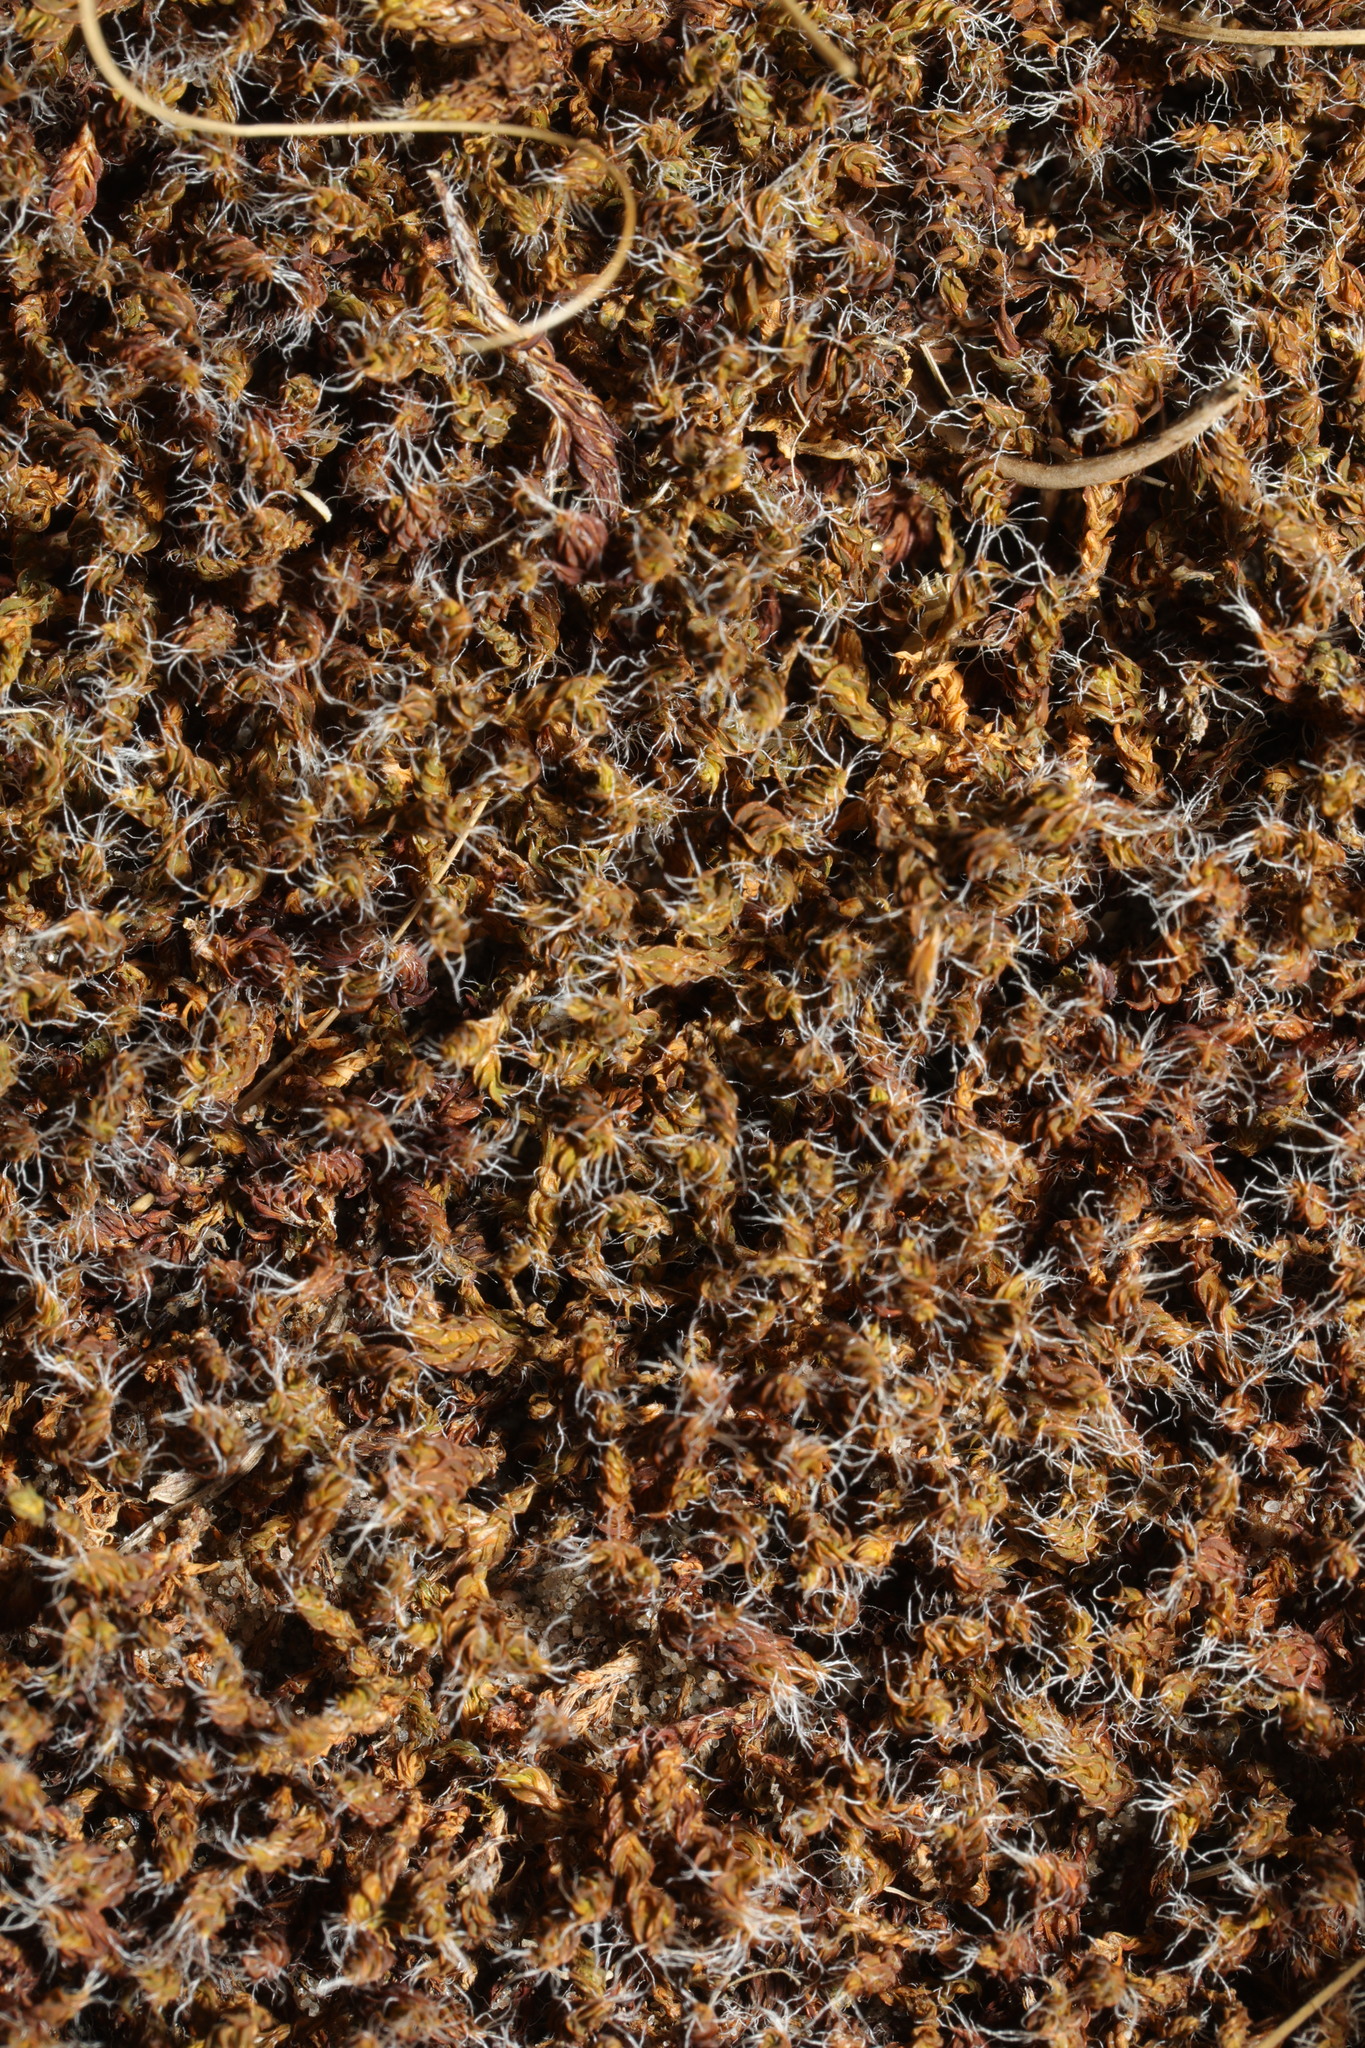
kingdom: Plantae
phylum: Bryophyta
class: Bryopsida
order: Pottiales
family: Pottiaceae
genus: Syntrichia
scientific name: Syntrichia ruralis
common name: Sidewalk screw moss
